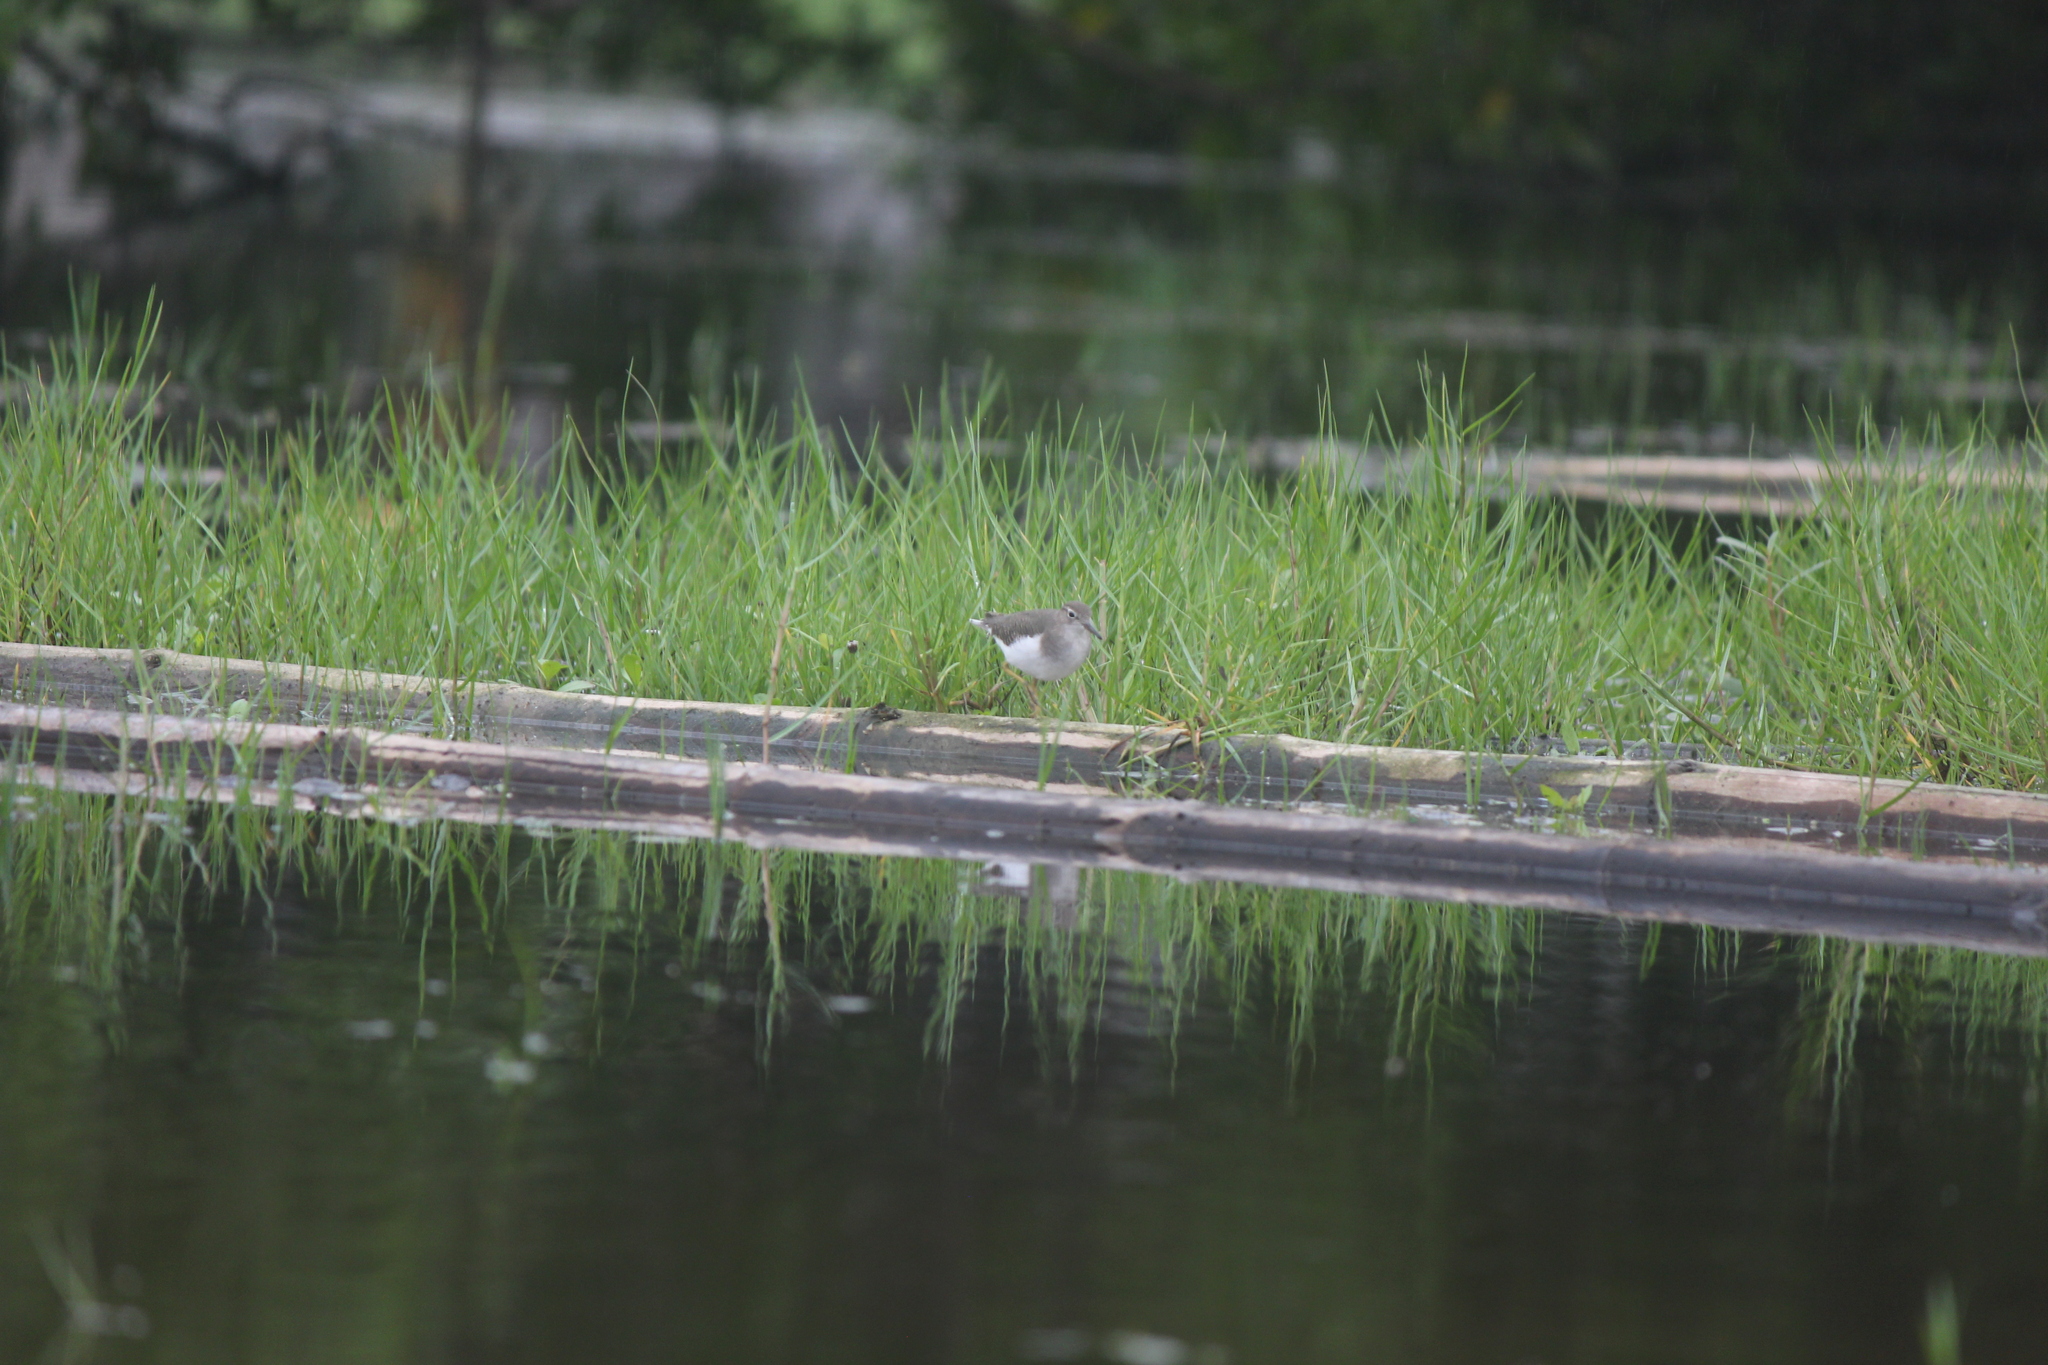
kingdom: Animalia
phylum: Chordata
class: Aves
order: Charadriiformes
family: Scolopacidae
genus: Actitis
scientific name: Actitis macularius
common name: Spotted sandpiper
